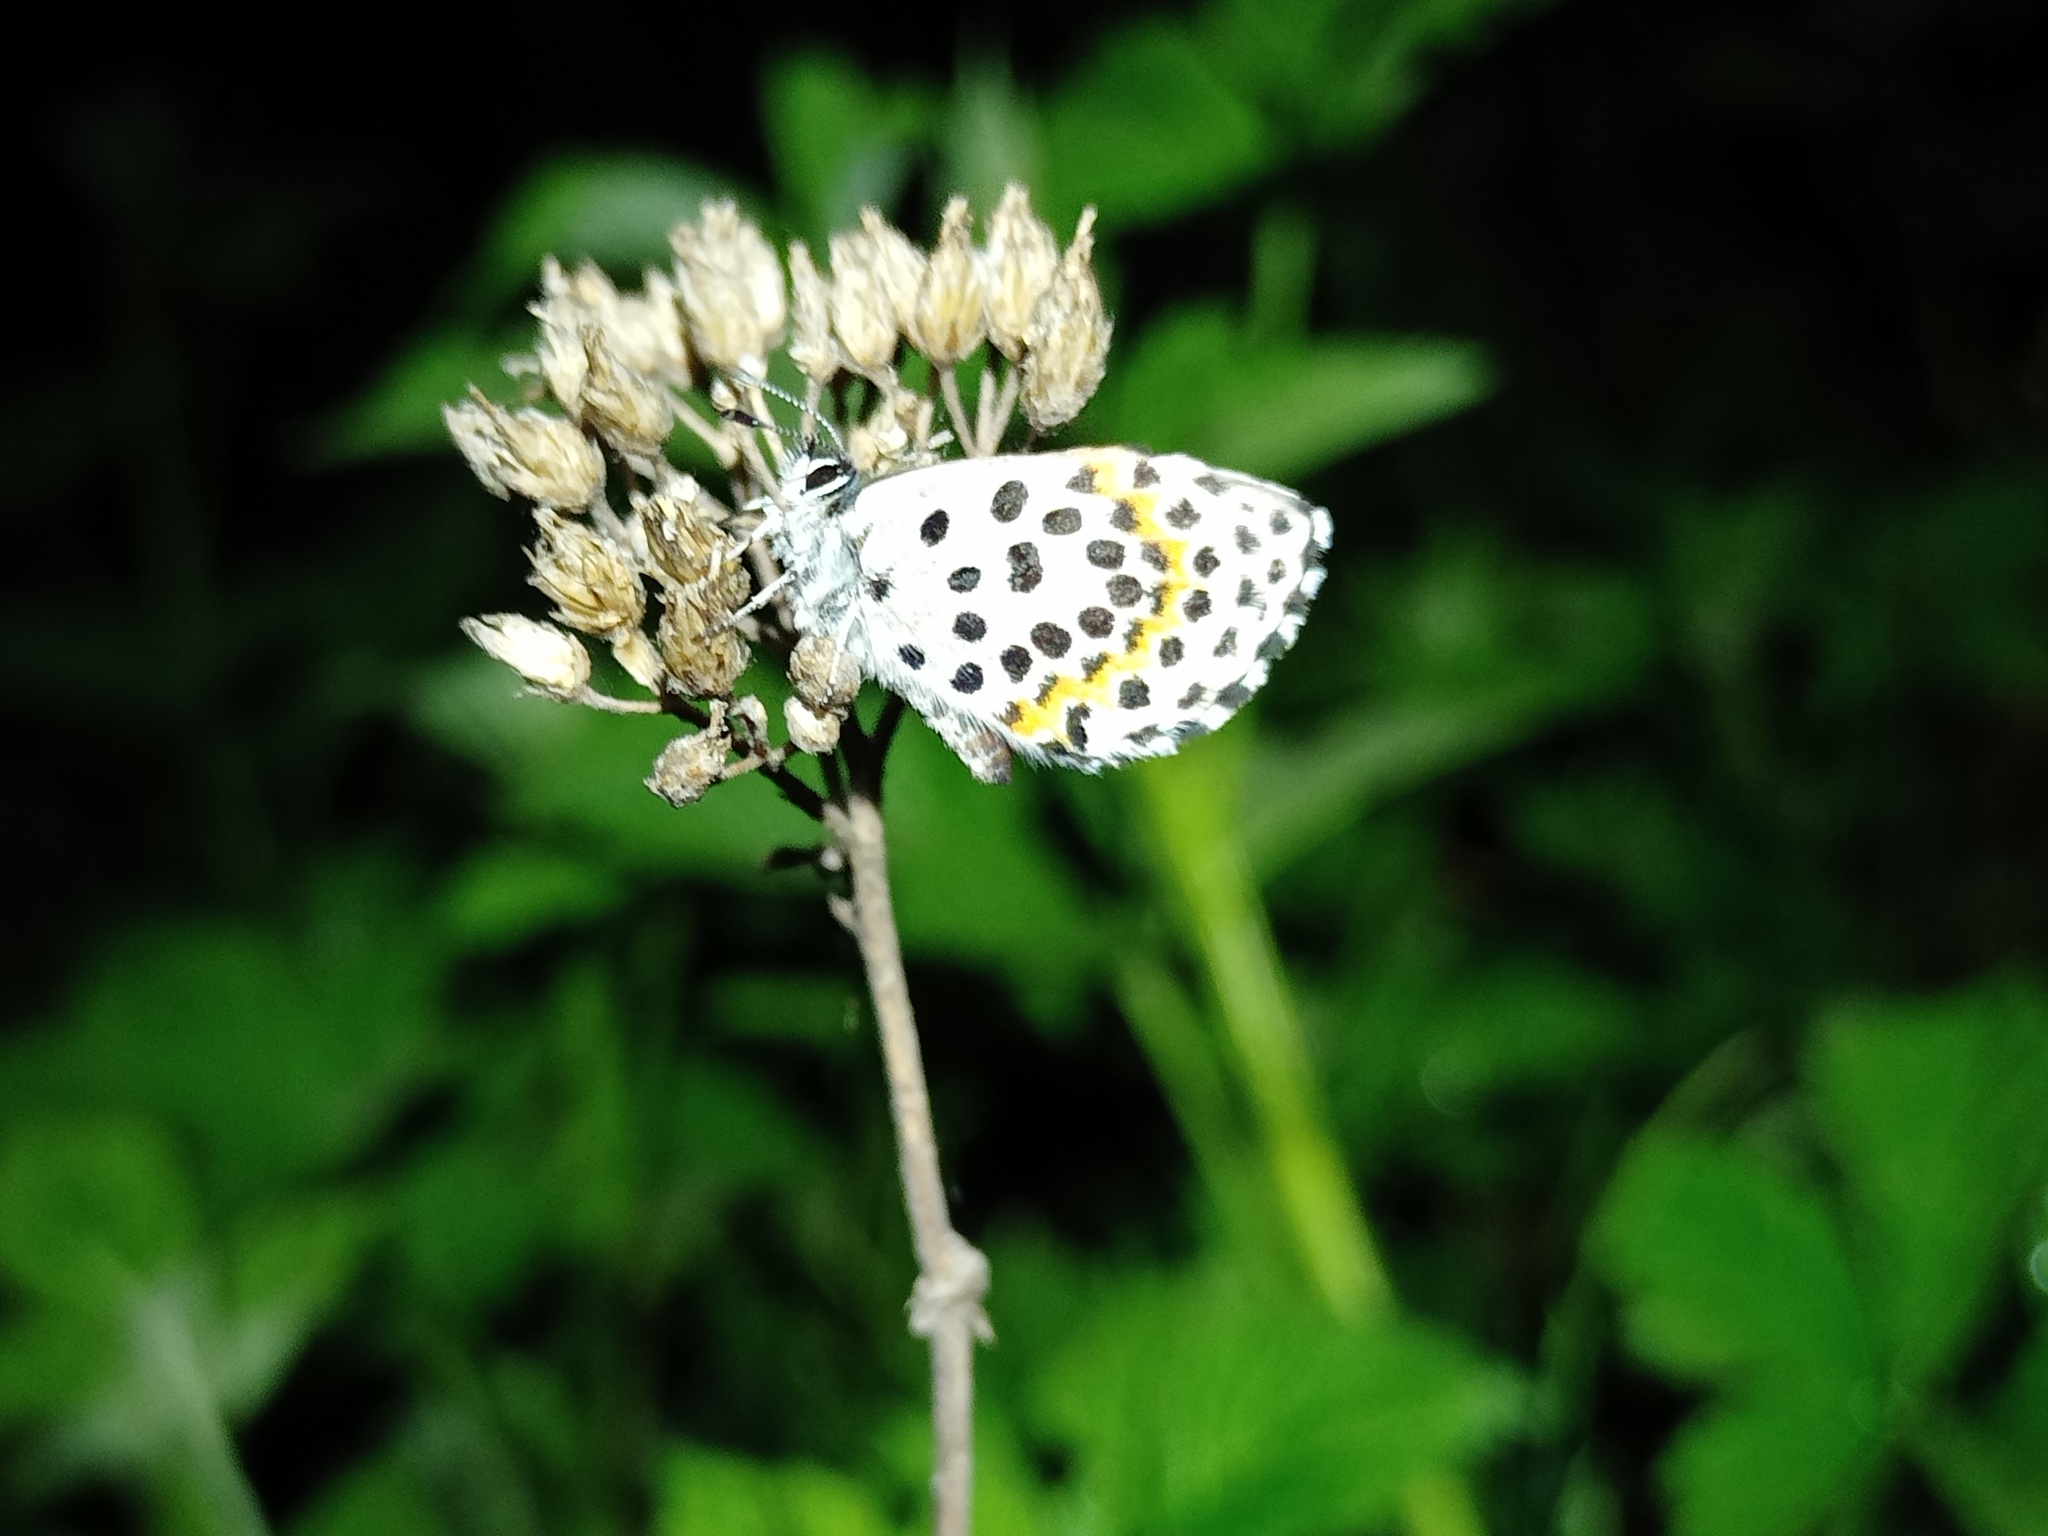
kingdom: Animalia
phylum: Arthropoda
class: Insecta
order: Lepidoptera
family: Lycaenidae
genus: Scolitantides
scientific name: Scolitantides orion
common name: Chequered blue
